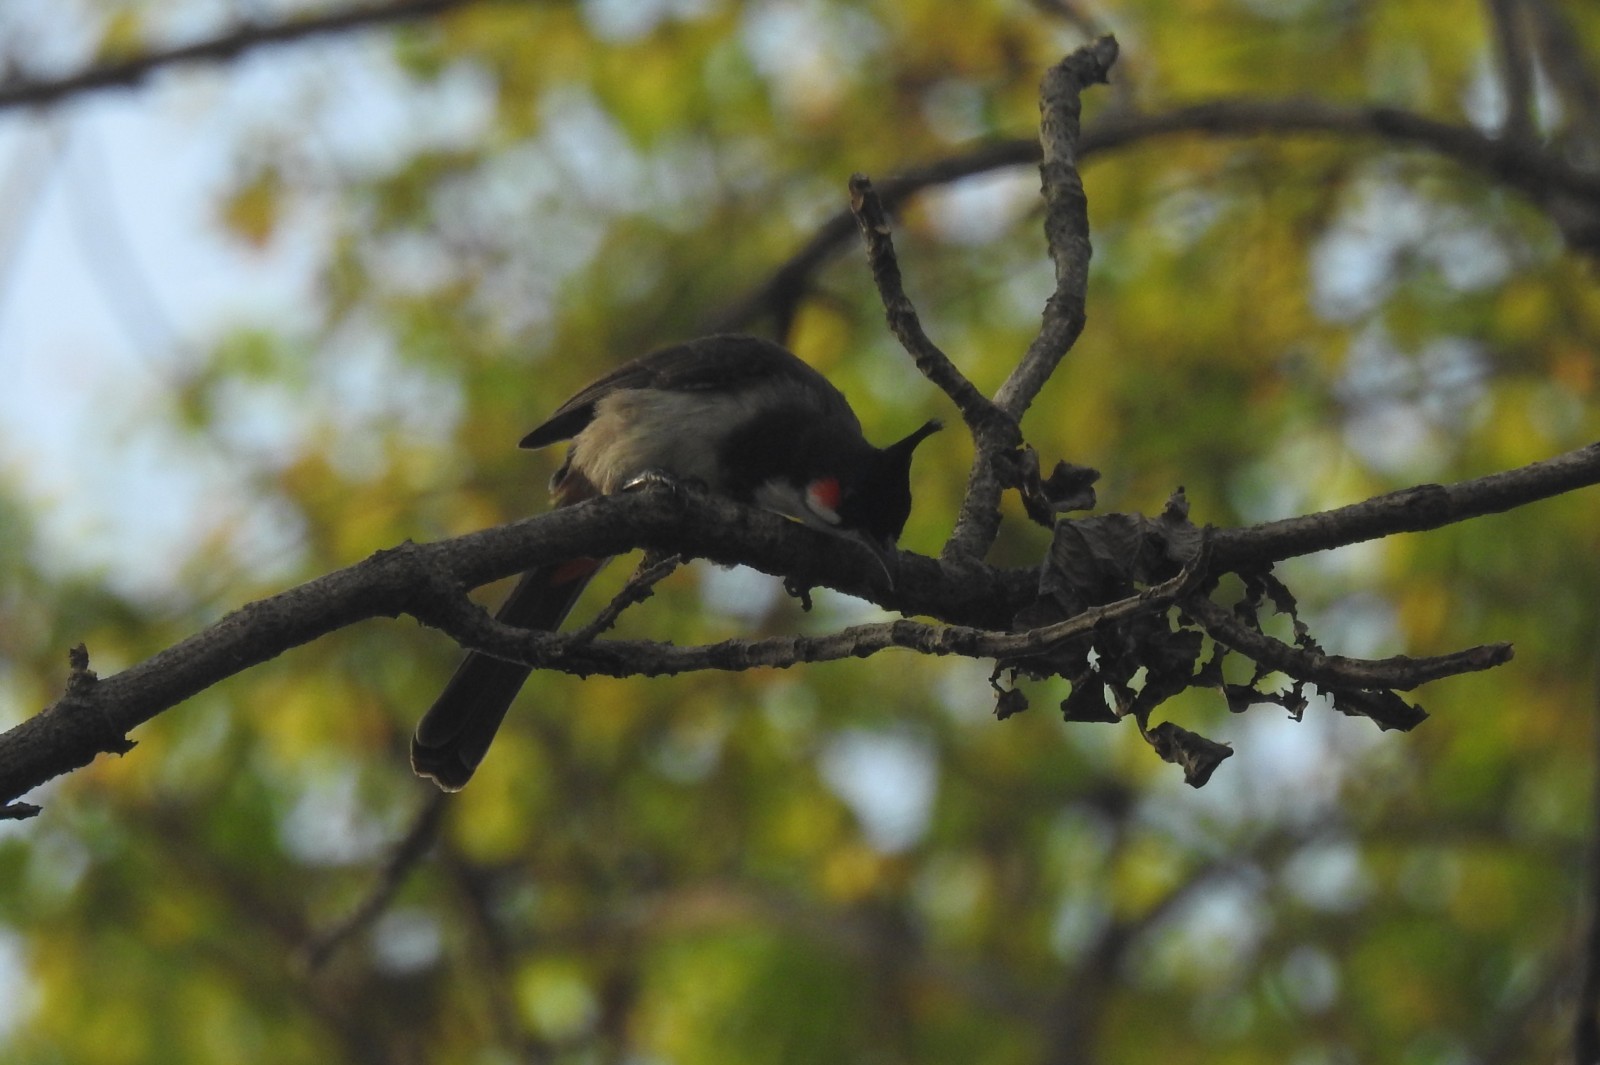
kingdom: Animalia
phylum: Chordata
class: Aves
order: Passeriformes
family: Pycnonotidae
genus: Pycnonotus
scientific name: Pycnonotus jocosus
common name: Red-whiskered bulbul
